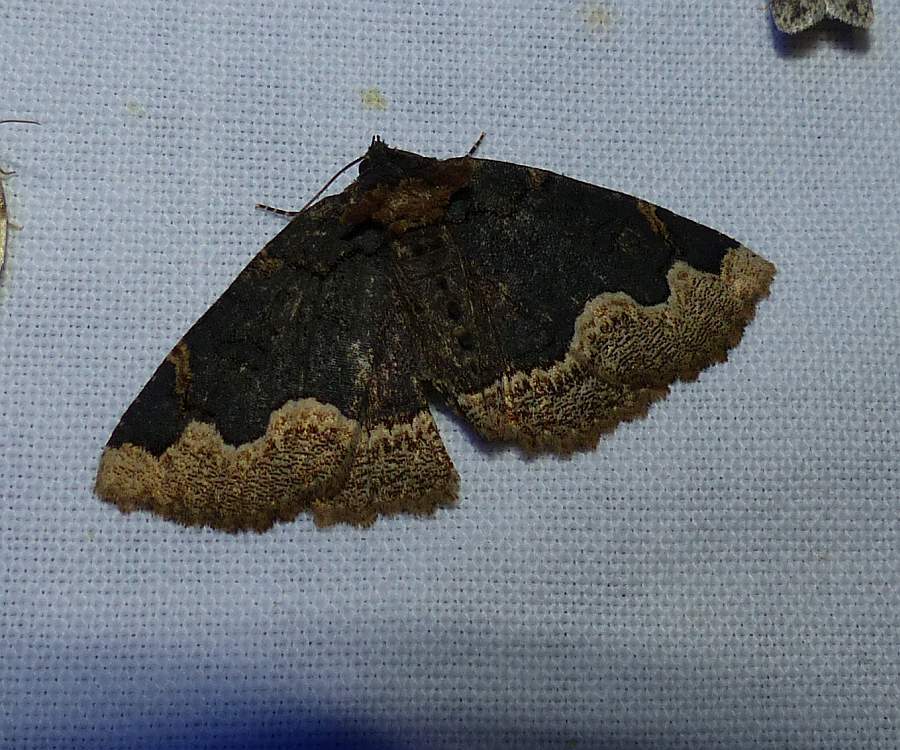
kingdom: Animalia
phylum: Arthropoda
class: Insecta
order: Lepidoptera
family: Erebidae
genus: Zale
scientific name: Zale horrida
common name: Horrid zale moth
